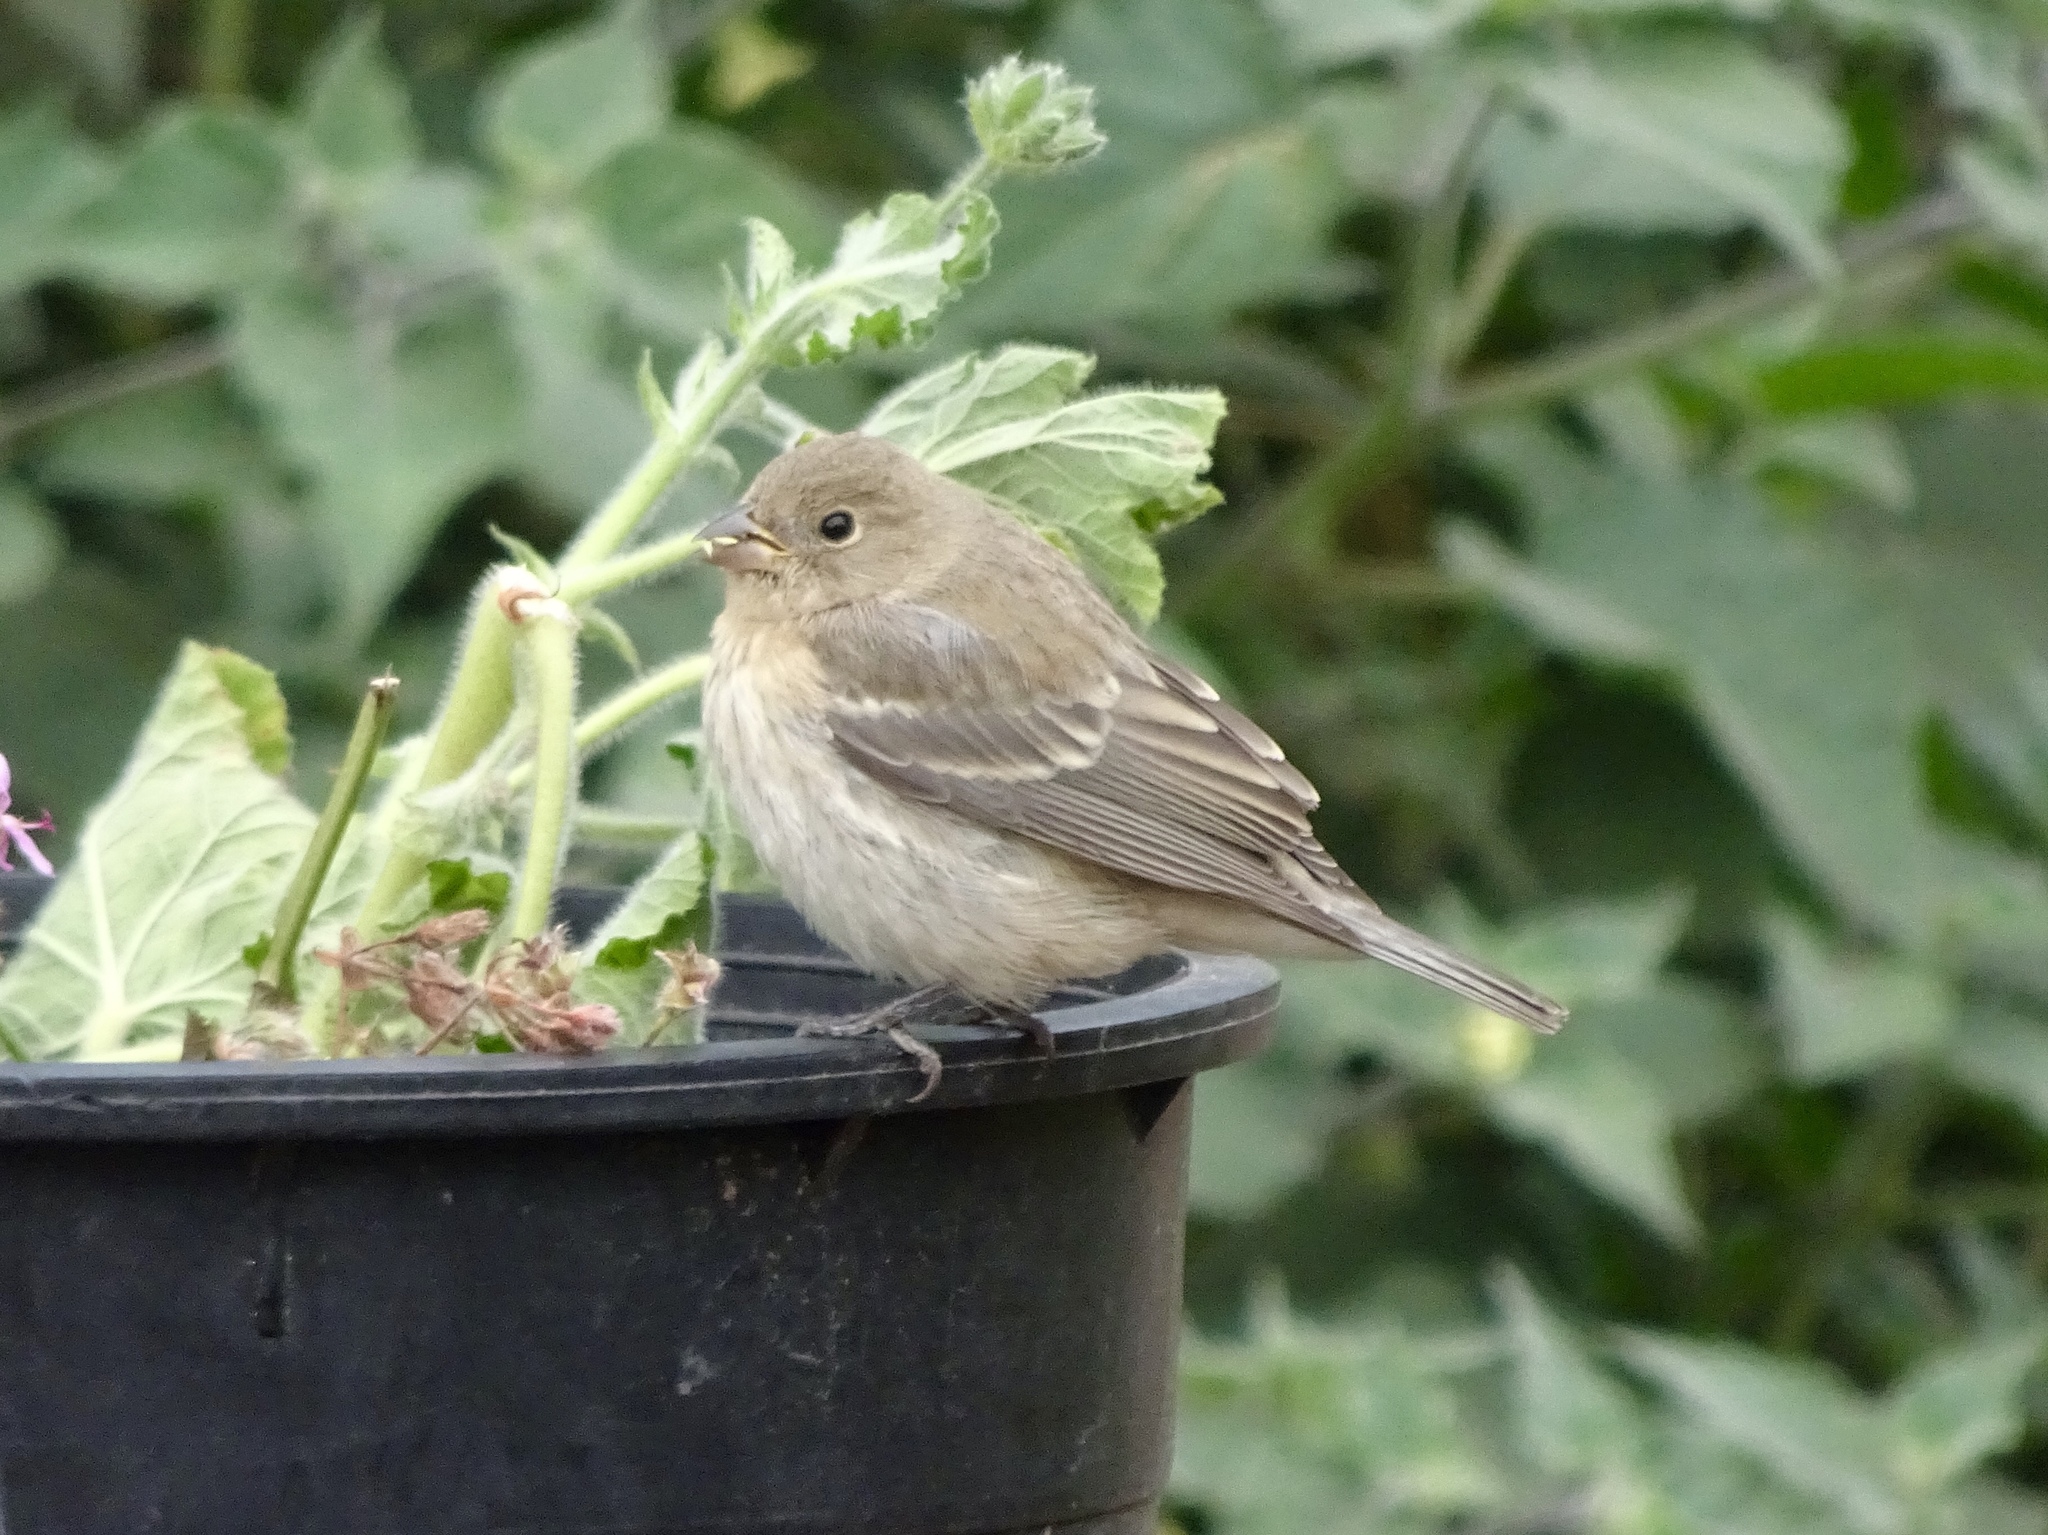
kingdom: Animalia
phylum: Chordata
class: Aves
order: Passeriformes
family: Cardinalidae
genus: Passerina
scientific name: Passerina amoena
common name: Lazuli bunting
